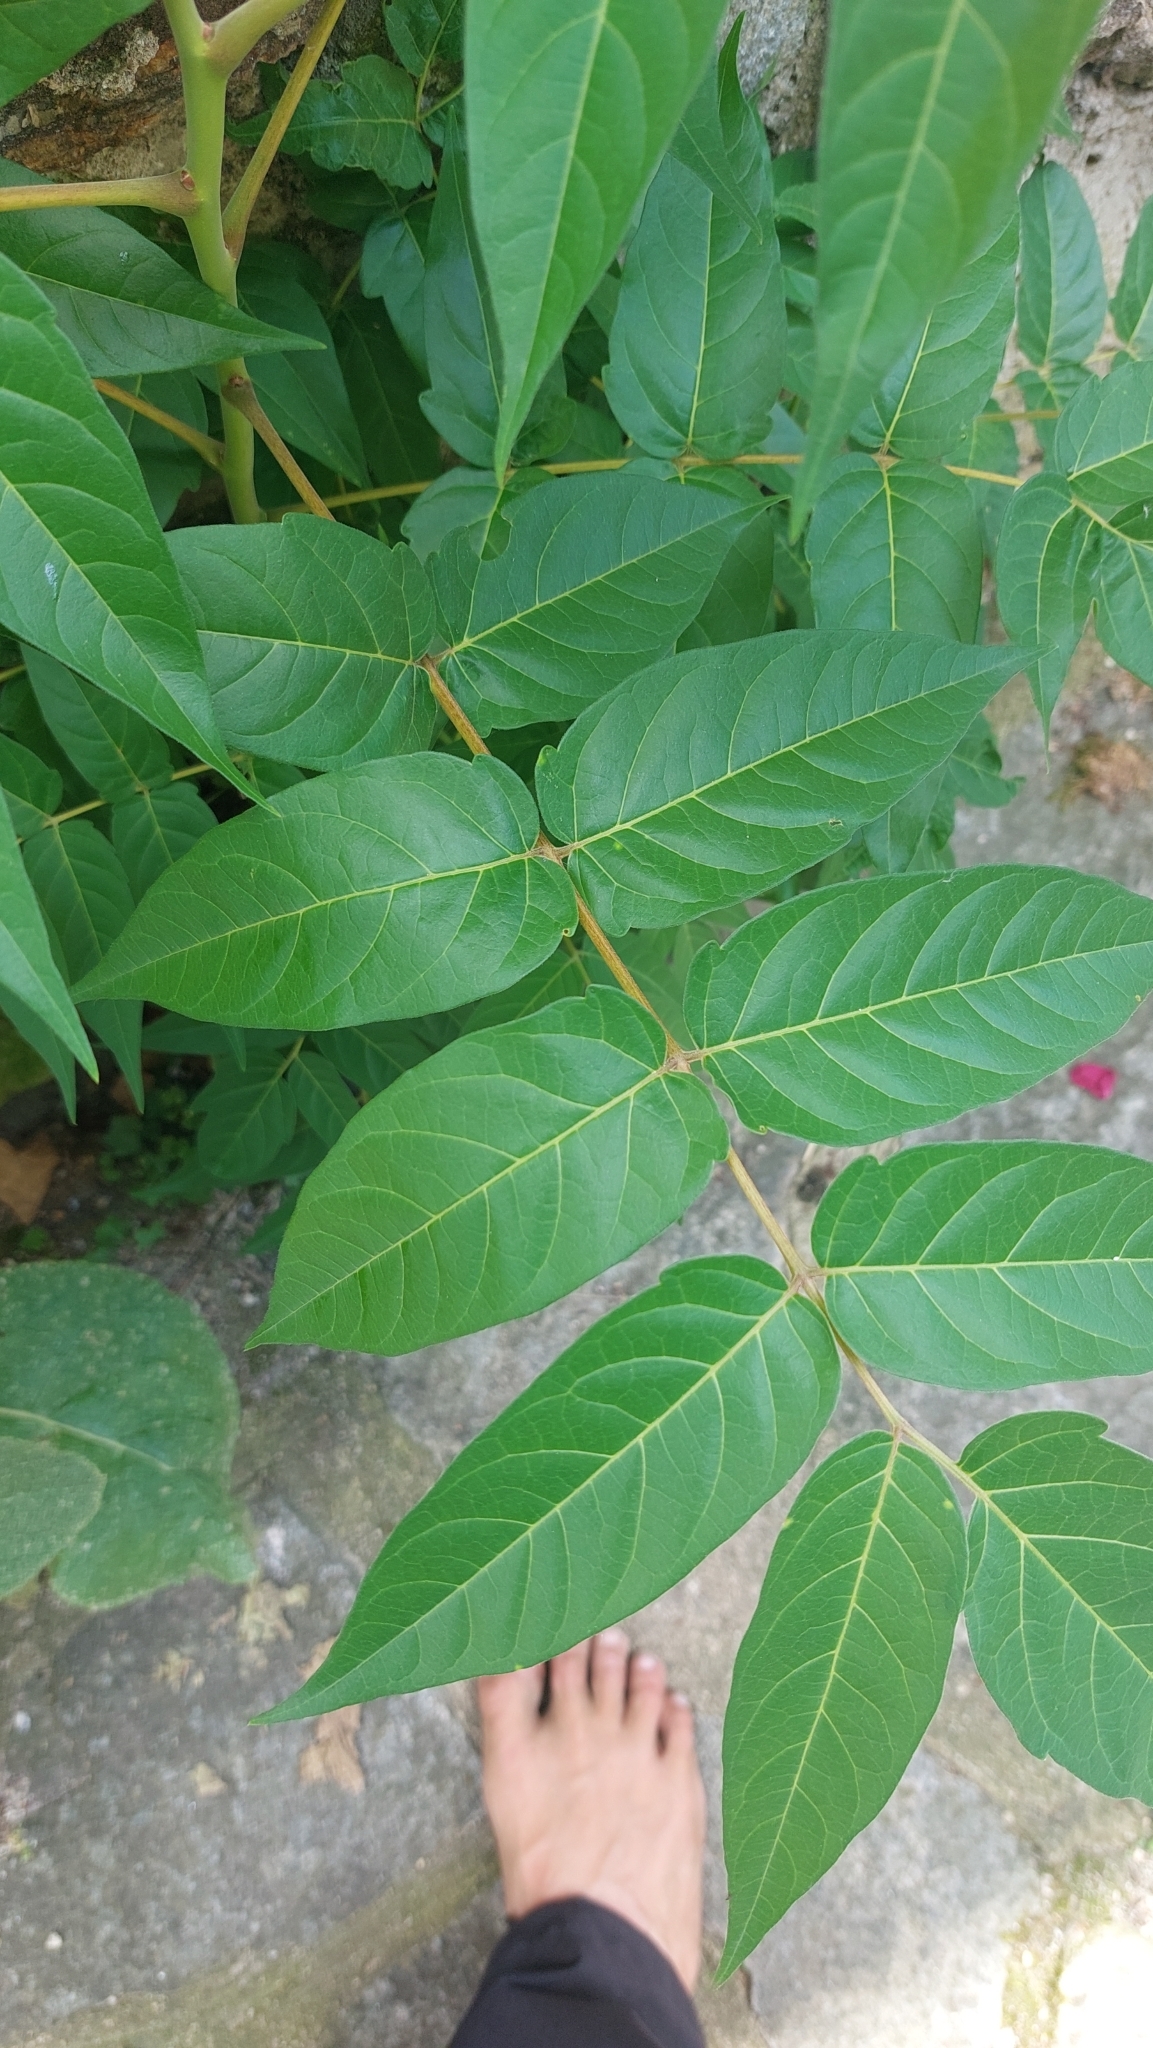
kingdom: Plantae
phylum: Tracheophyta
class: Magnoliopsida
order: Sapindales
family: Simaroubaceae
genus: Ailanthus
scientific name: Ailanthus altissima
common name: Tree-of-heaven
